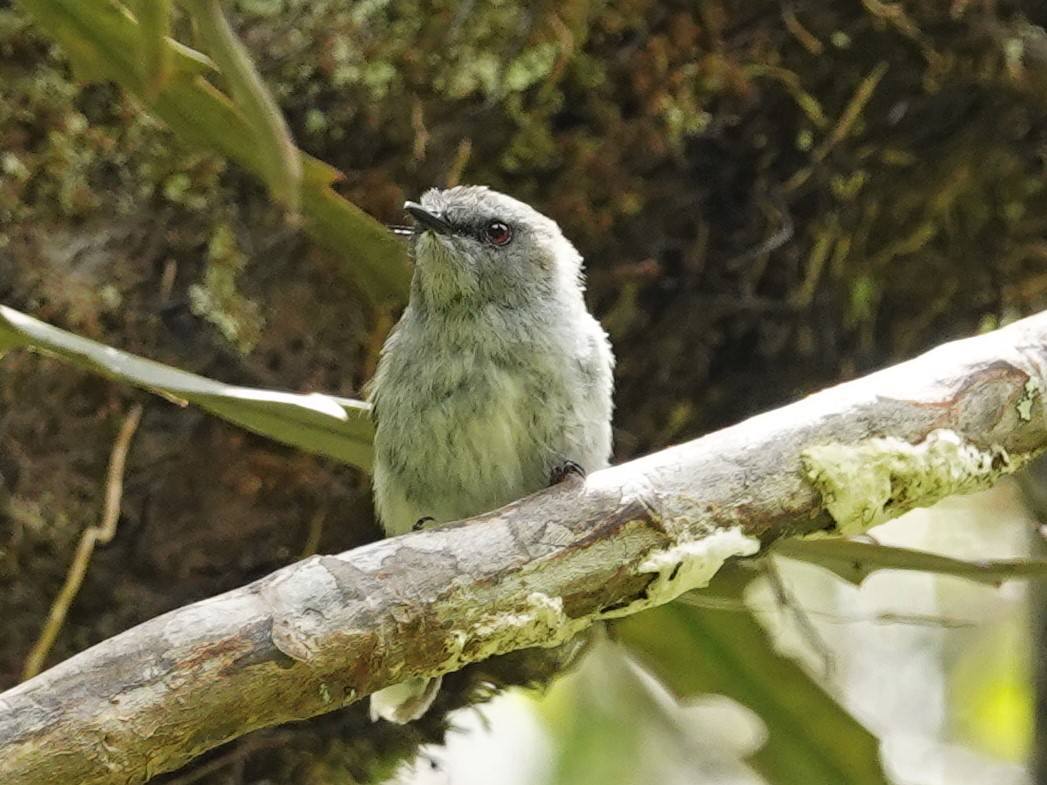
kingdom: Animalia
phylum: Chordata
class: Aves
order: Passeriformes
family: Acanthizidae
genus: Gerygone
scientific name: Gerygone igata
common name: Grey gerygone
